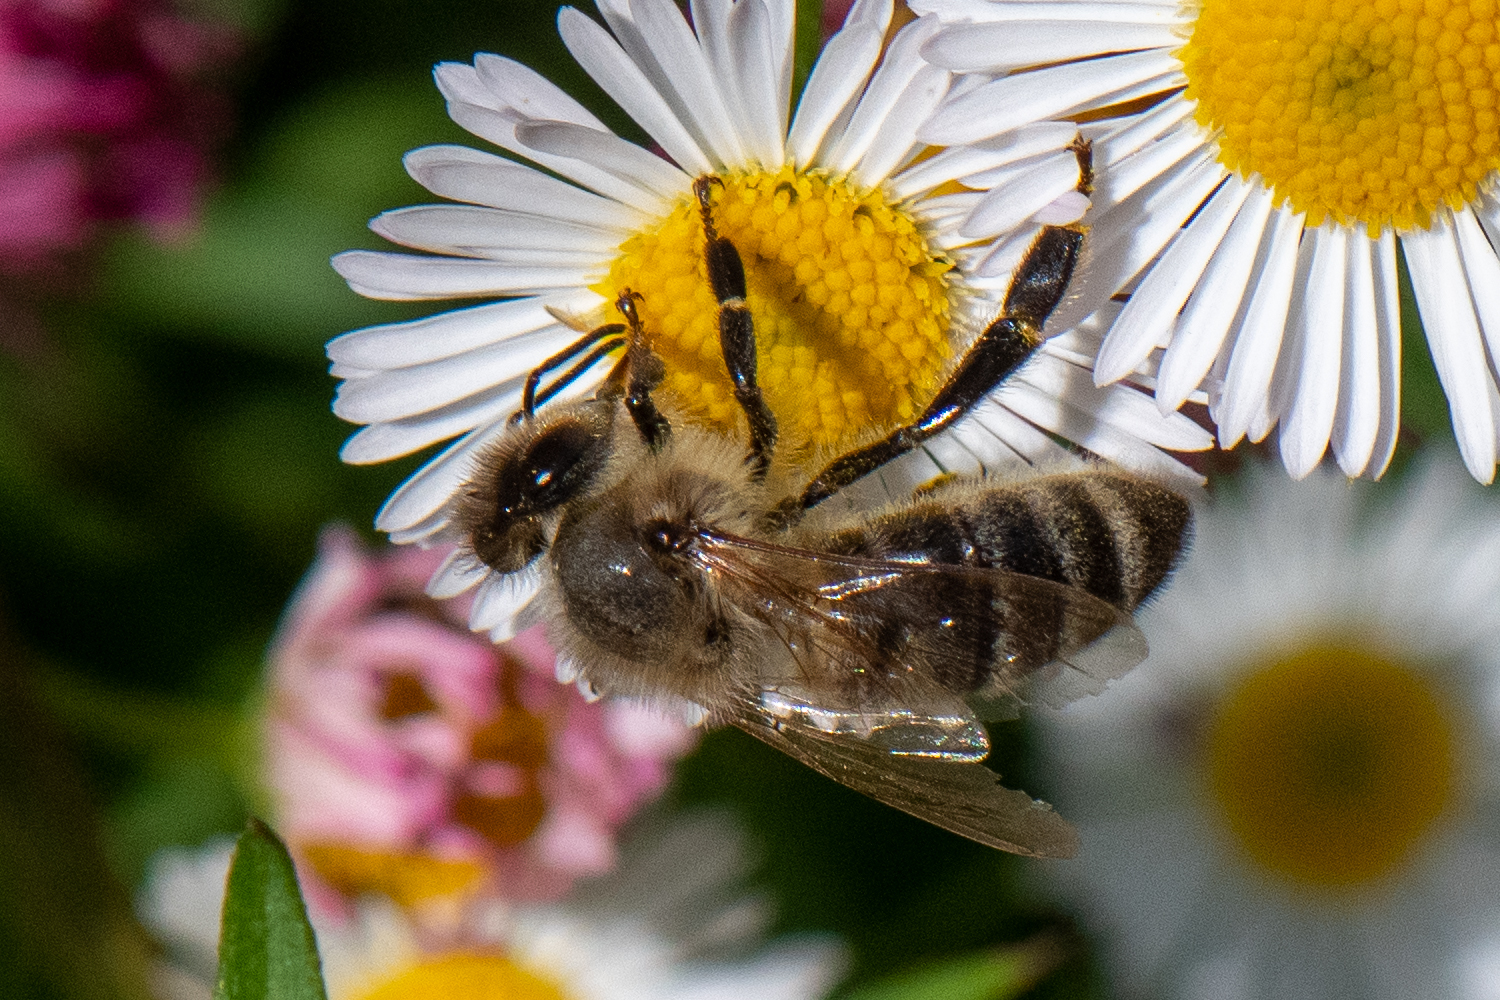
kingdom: Animalia
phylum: Arthropoda
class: Insecta
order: Hymenoptera
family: Apidae
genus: Apis
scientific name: Apis mellifera
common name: Honey bee
